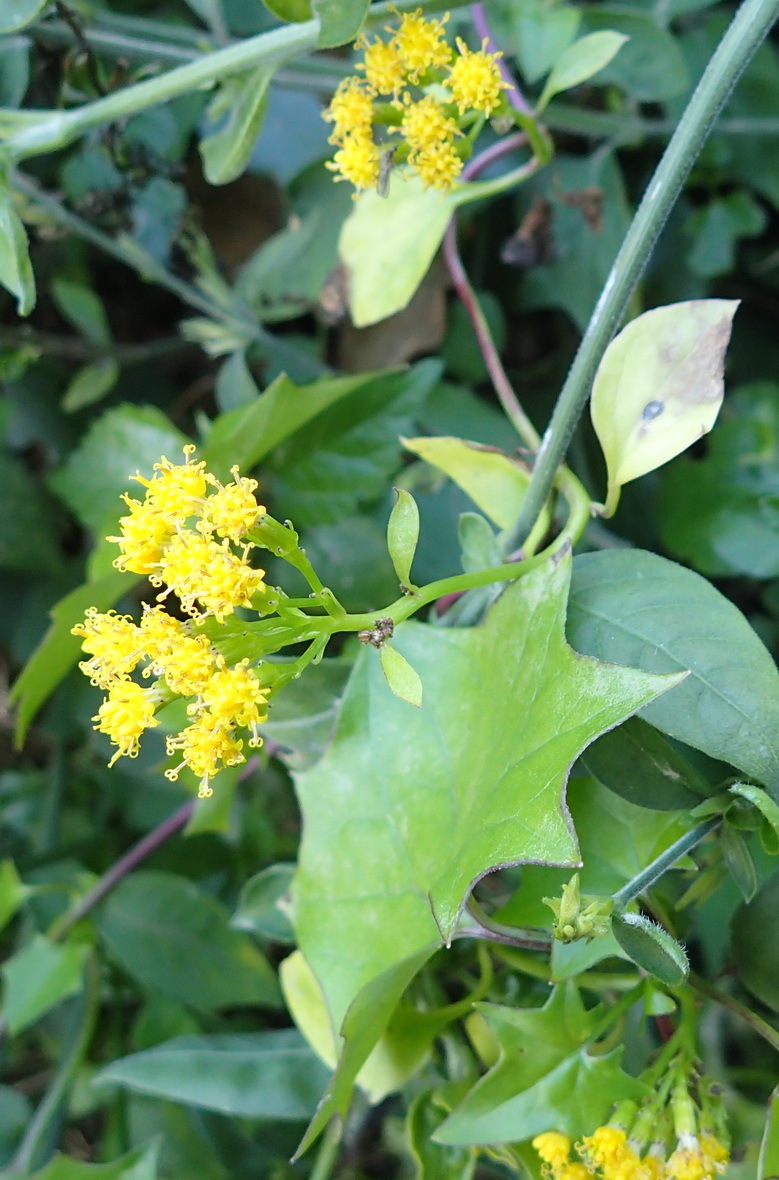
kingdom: Plantae
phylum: Tracheophyta
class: Magnoliopsida
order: Asterales
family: Asteraceae
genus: Delairea
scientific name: Delairea odorata
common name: Cape-ivy
